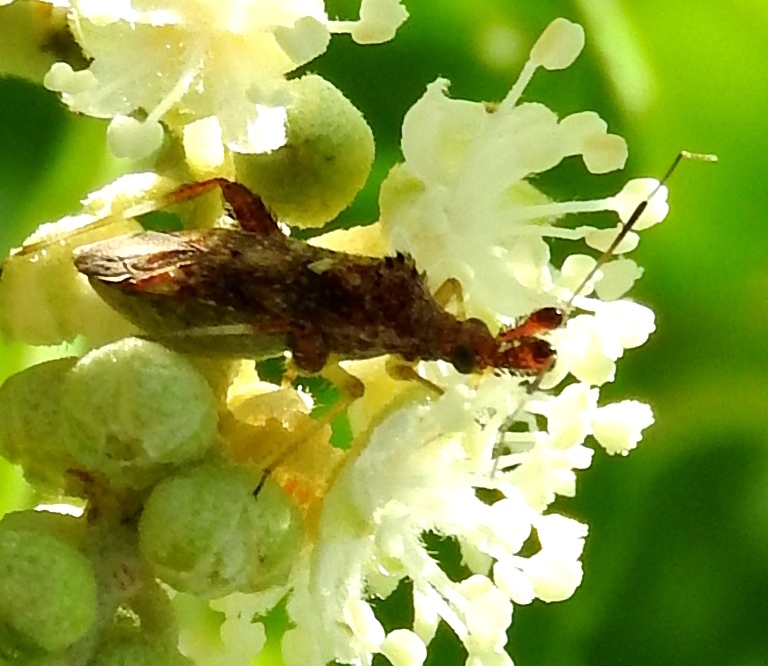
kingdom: Animalia
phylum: Arthropoda
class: Insecta
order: Hemiptera
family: Miridae
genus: Neurocolpus
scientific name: Neurocolpus
